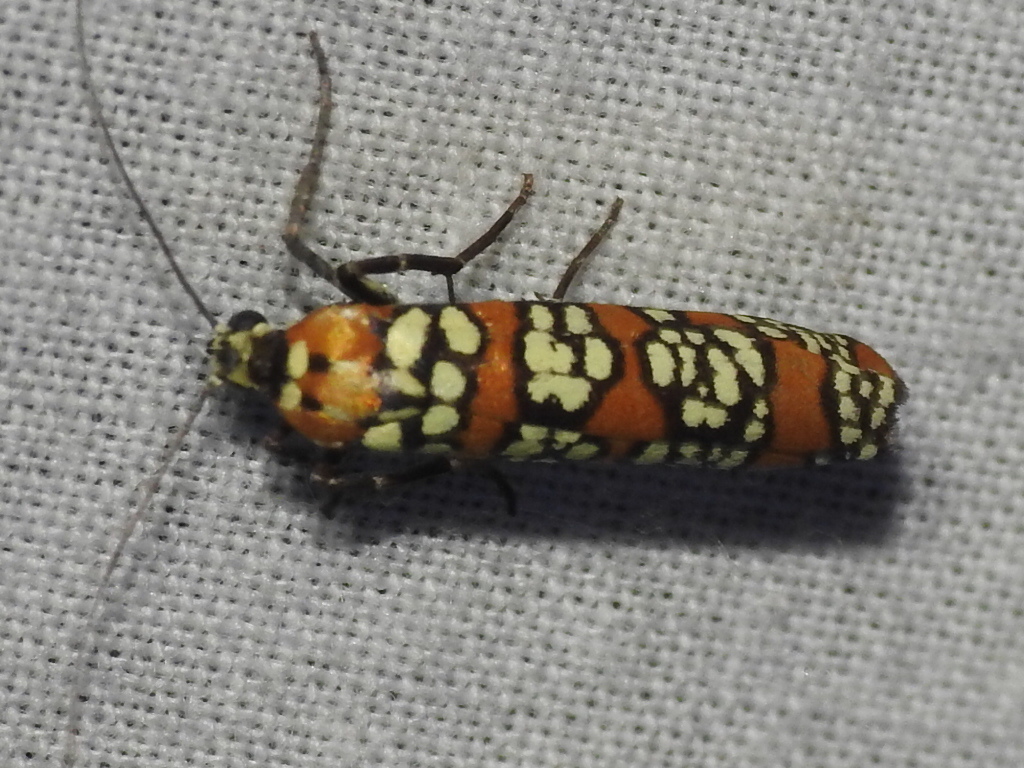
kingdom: Animalia
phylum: Arthropoda
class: Insecta
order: Lepidoptera
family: Attevidae
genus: Atteva
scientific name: Atteva punctella
